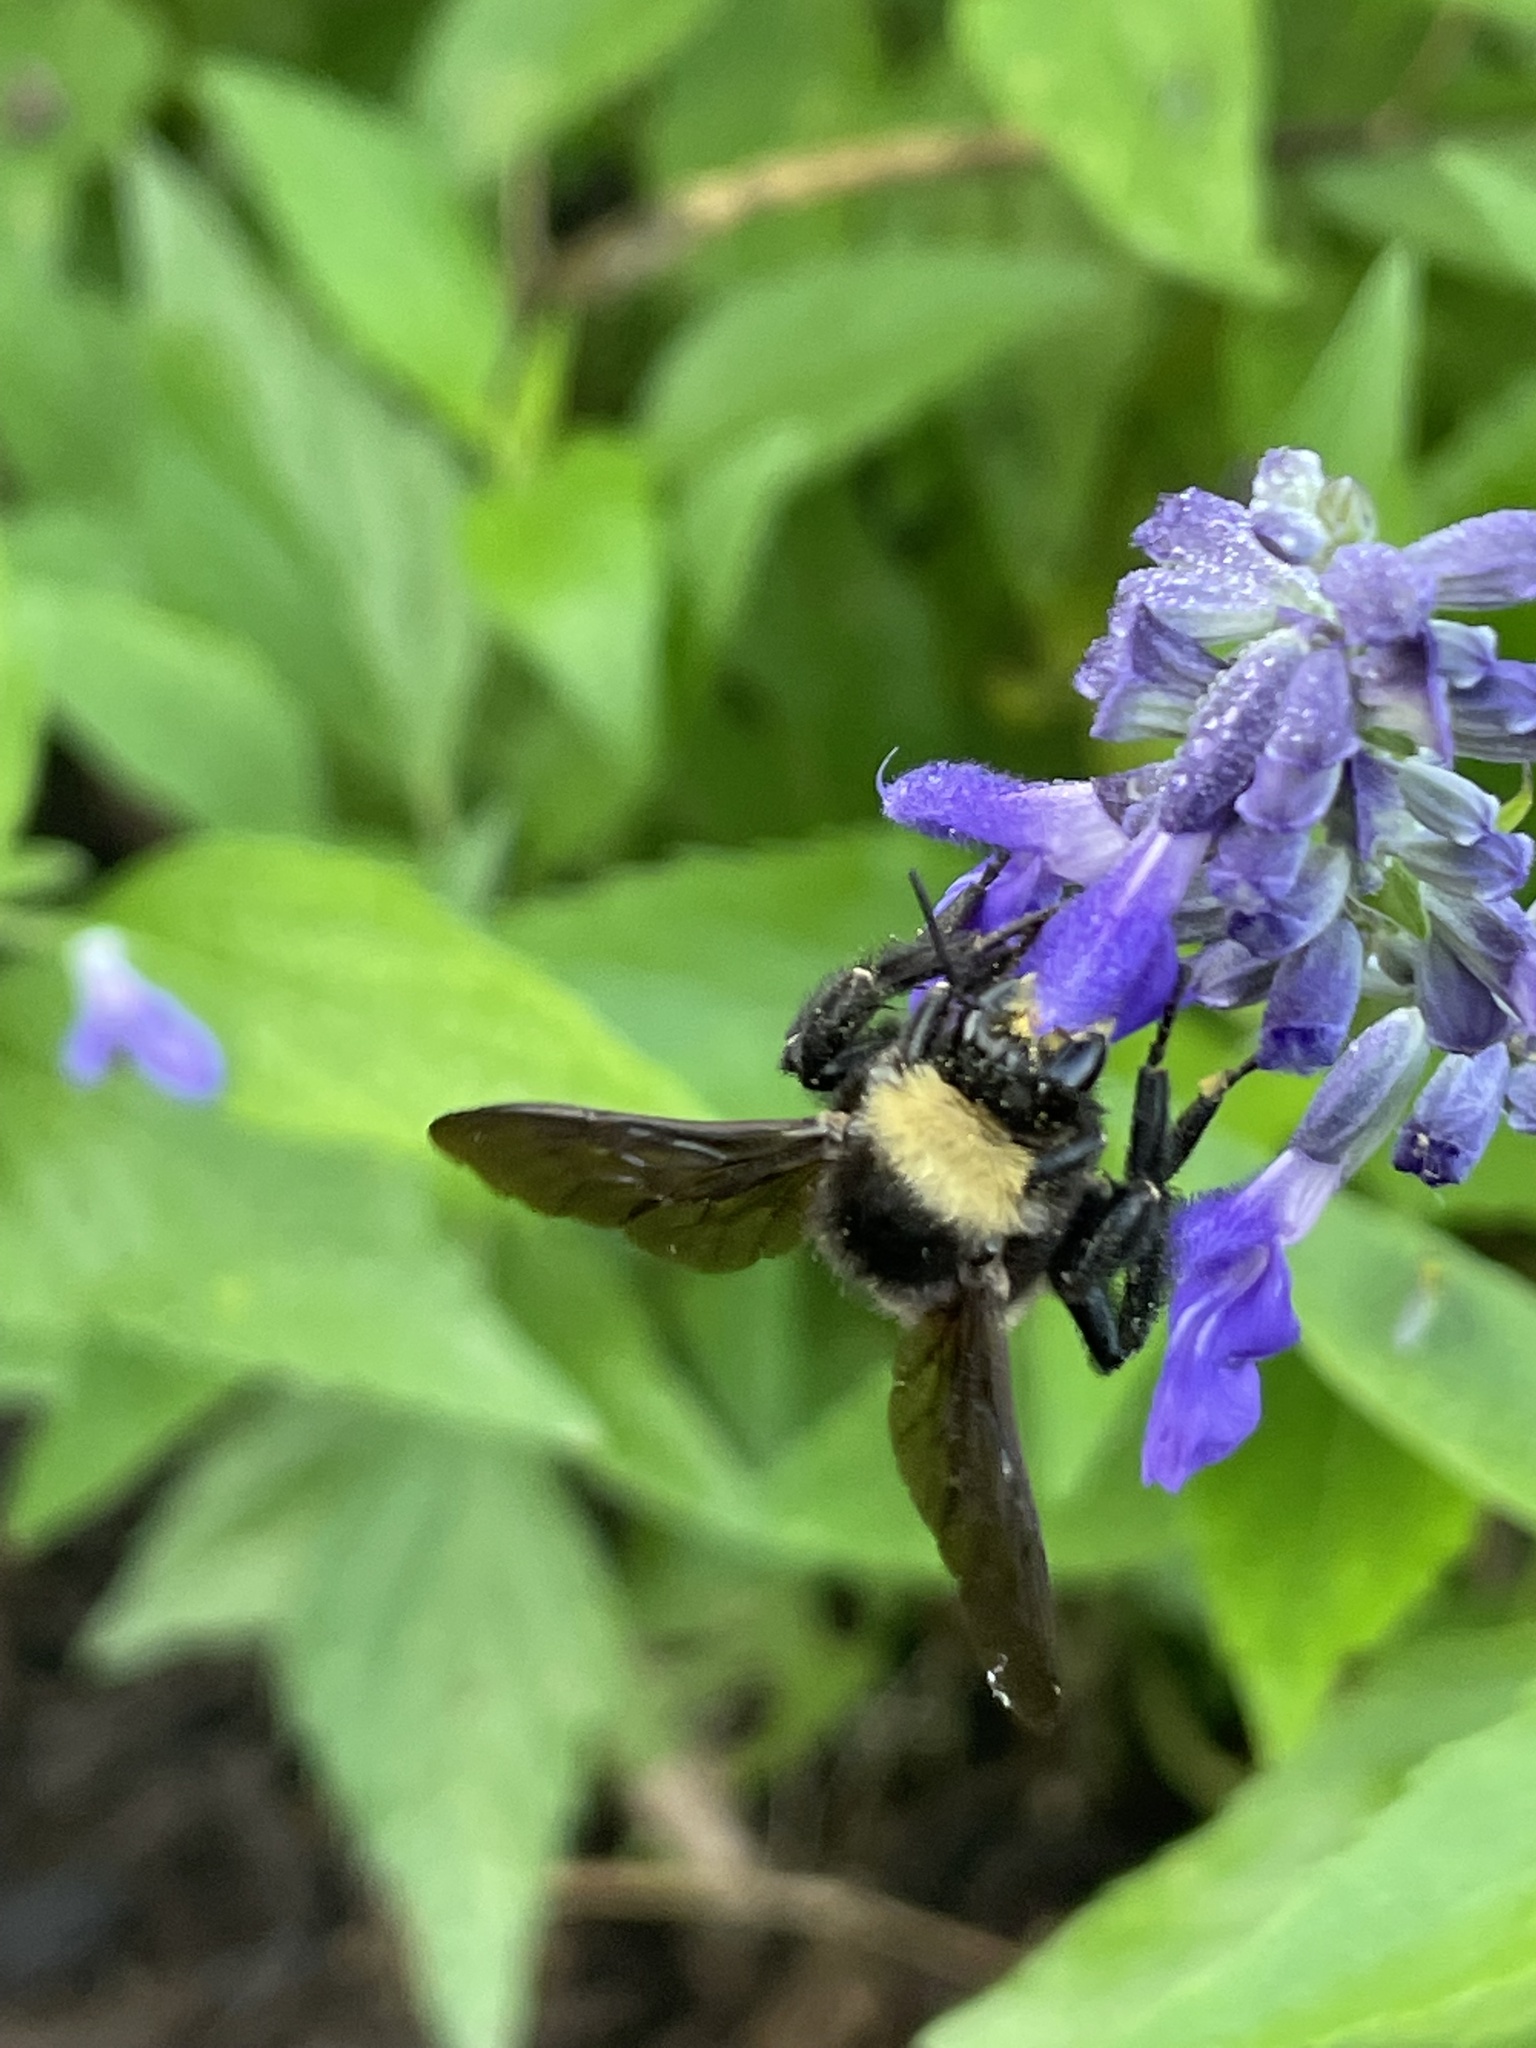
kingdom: Animalia
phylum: Arthropoda
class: Insecta
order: Hymenoptera
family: Apidae
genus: Bombus
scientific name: Bombus pensylvanicus
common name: Bumble bee
